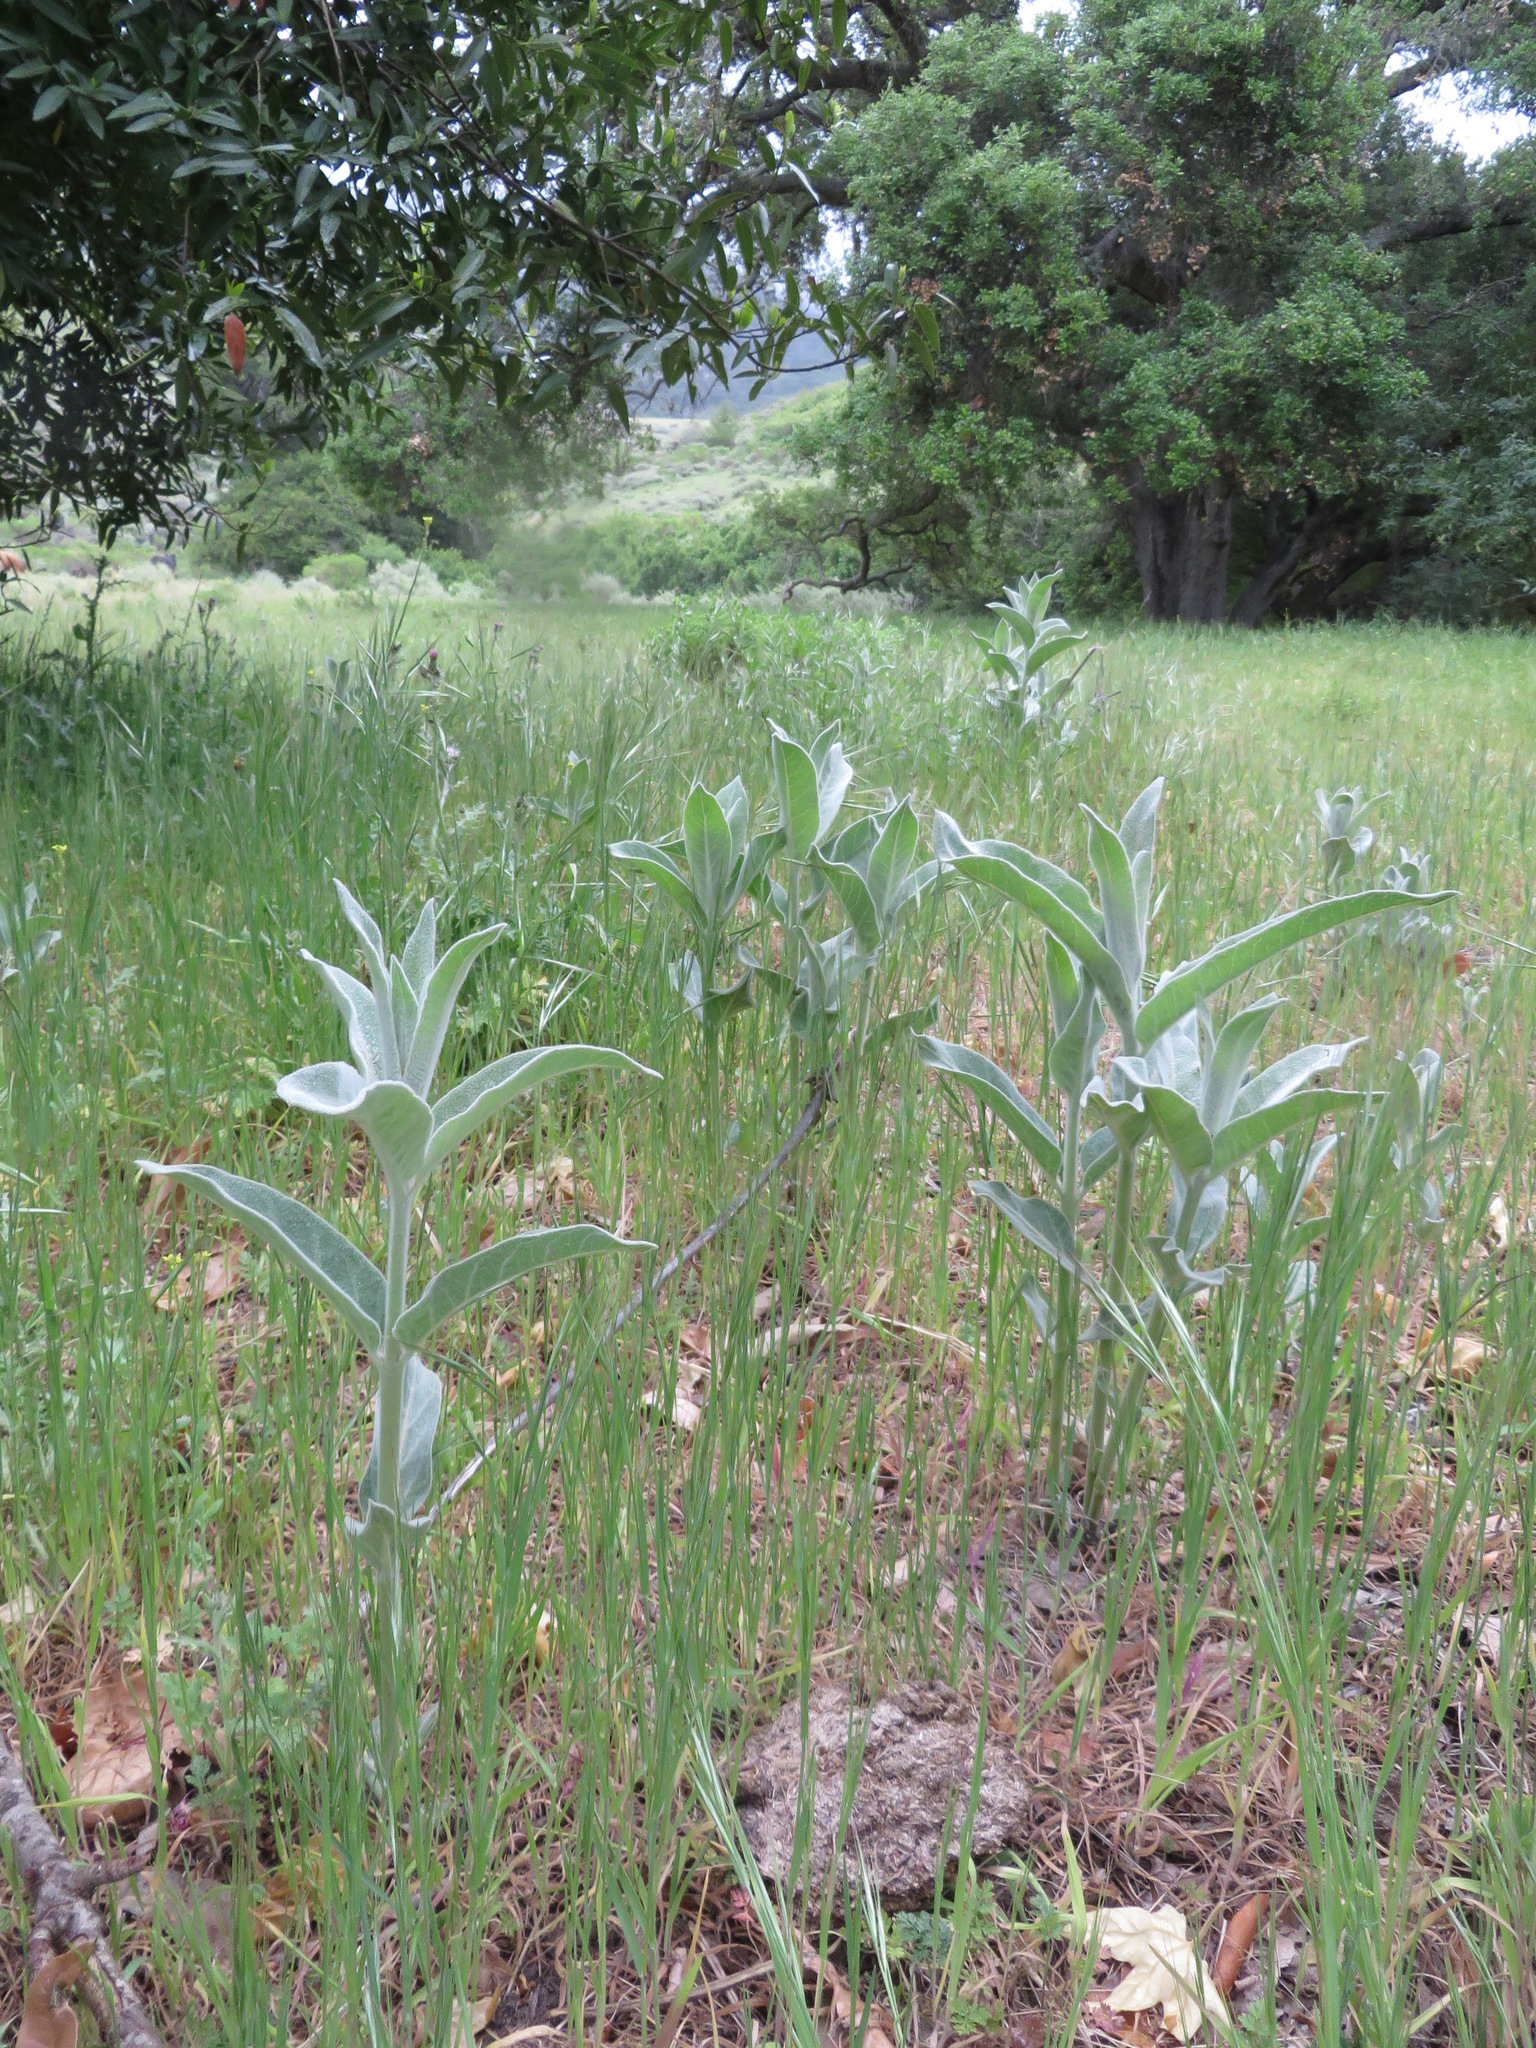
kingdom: Plantae
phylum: Tracheophyta
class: Magnoliopsida
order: Gentianales
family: Apocynaceae
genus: Asclepias
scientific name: Asclepias eriocarpa
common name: Indian milkweed
